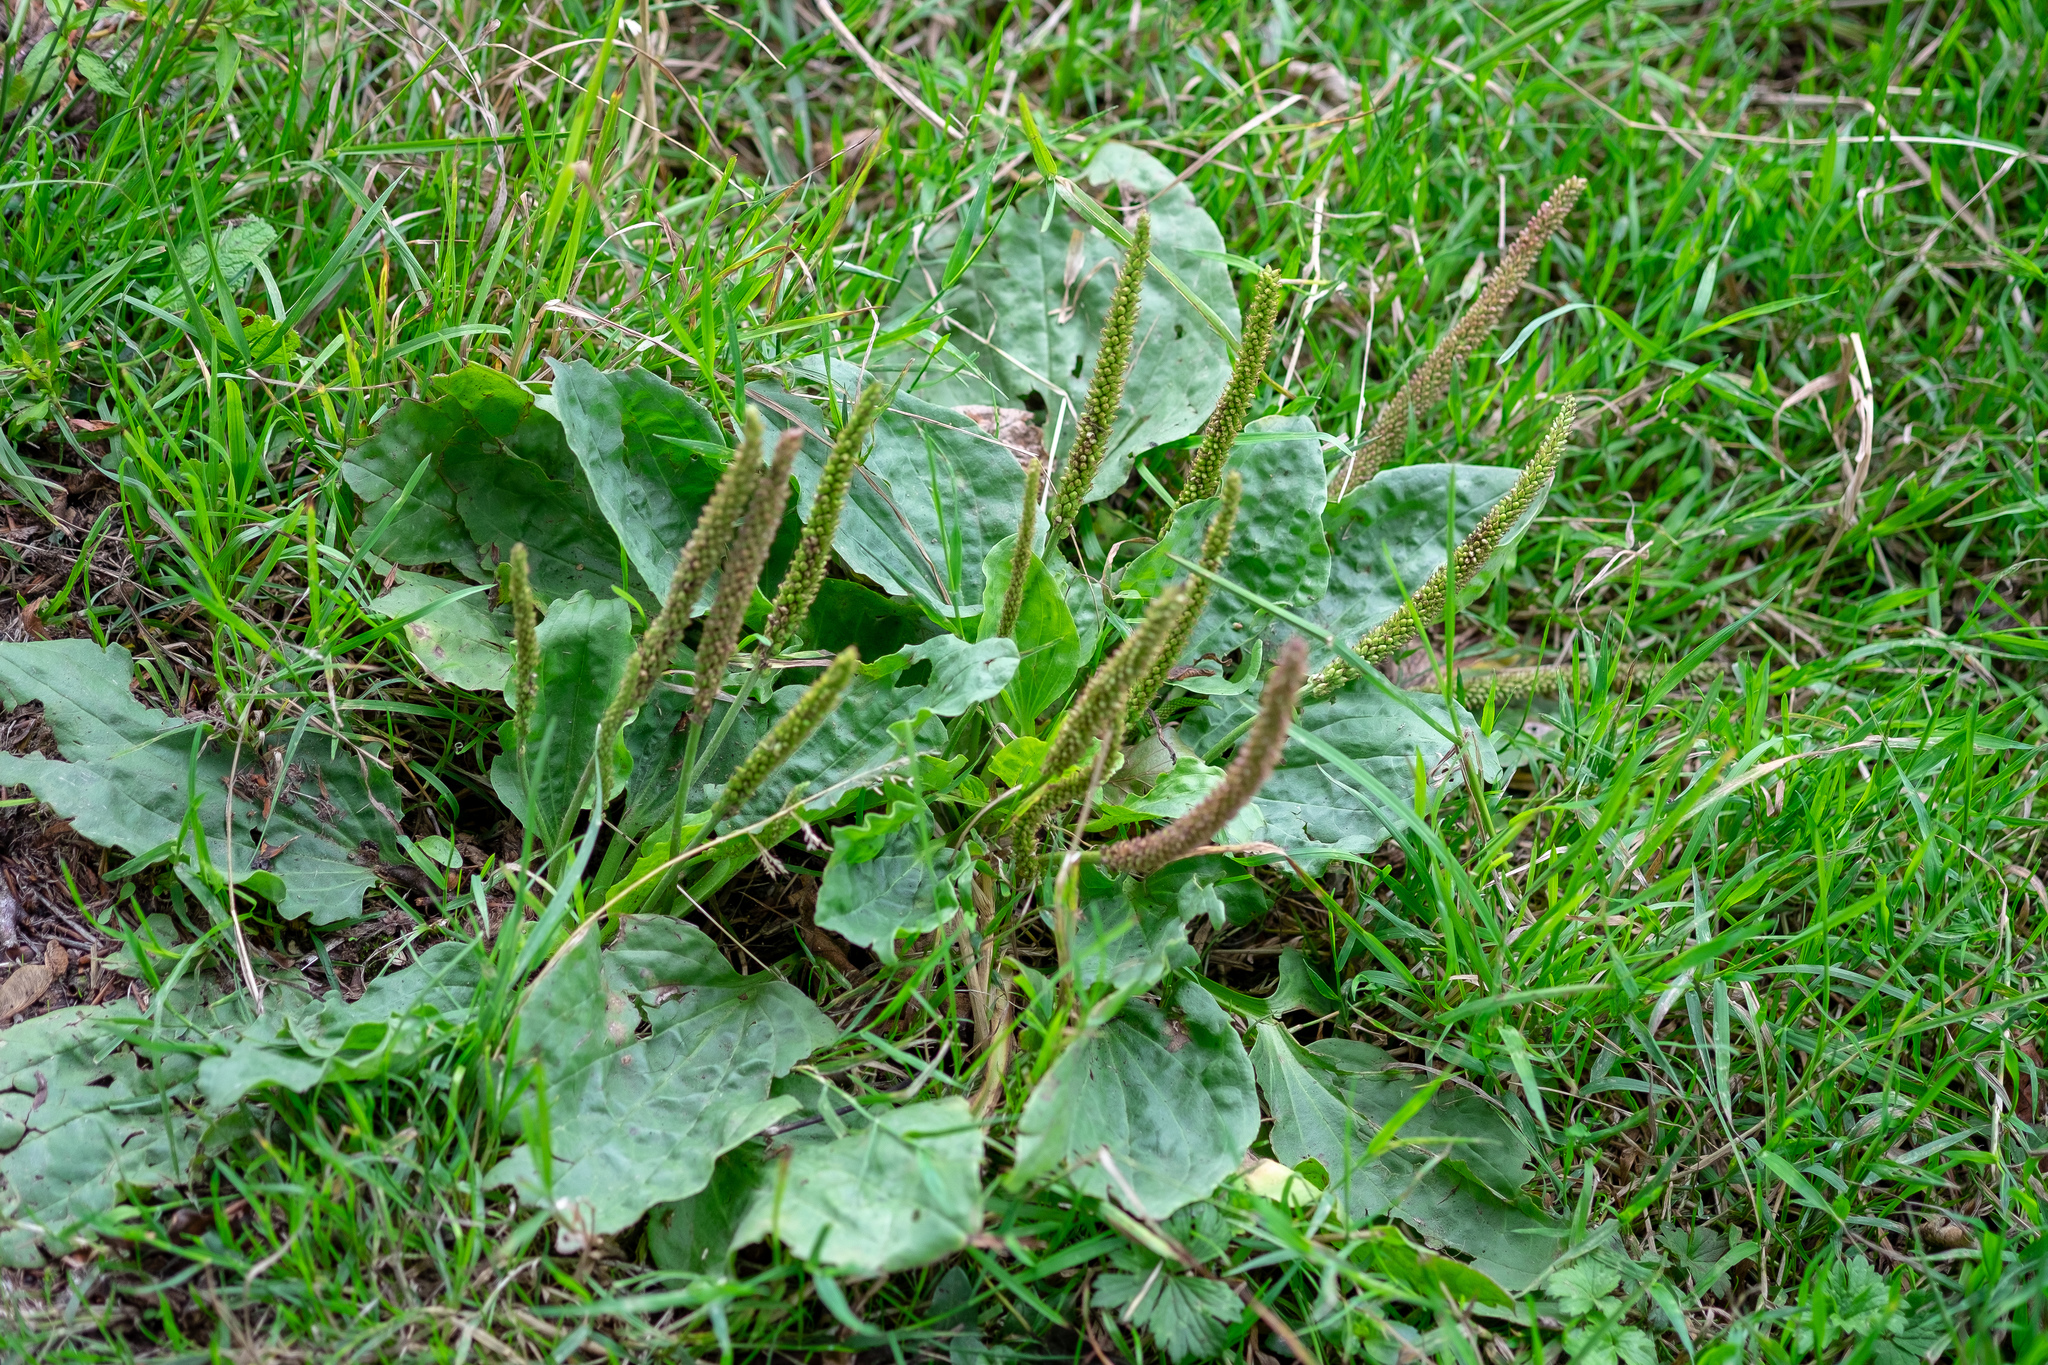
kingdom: Plantae
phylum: Tracheophyta
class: Magnoliopsida
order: Lamiales
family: Plantaginaceae
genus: Plantago
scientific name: Plantago major
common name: Common plantain
